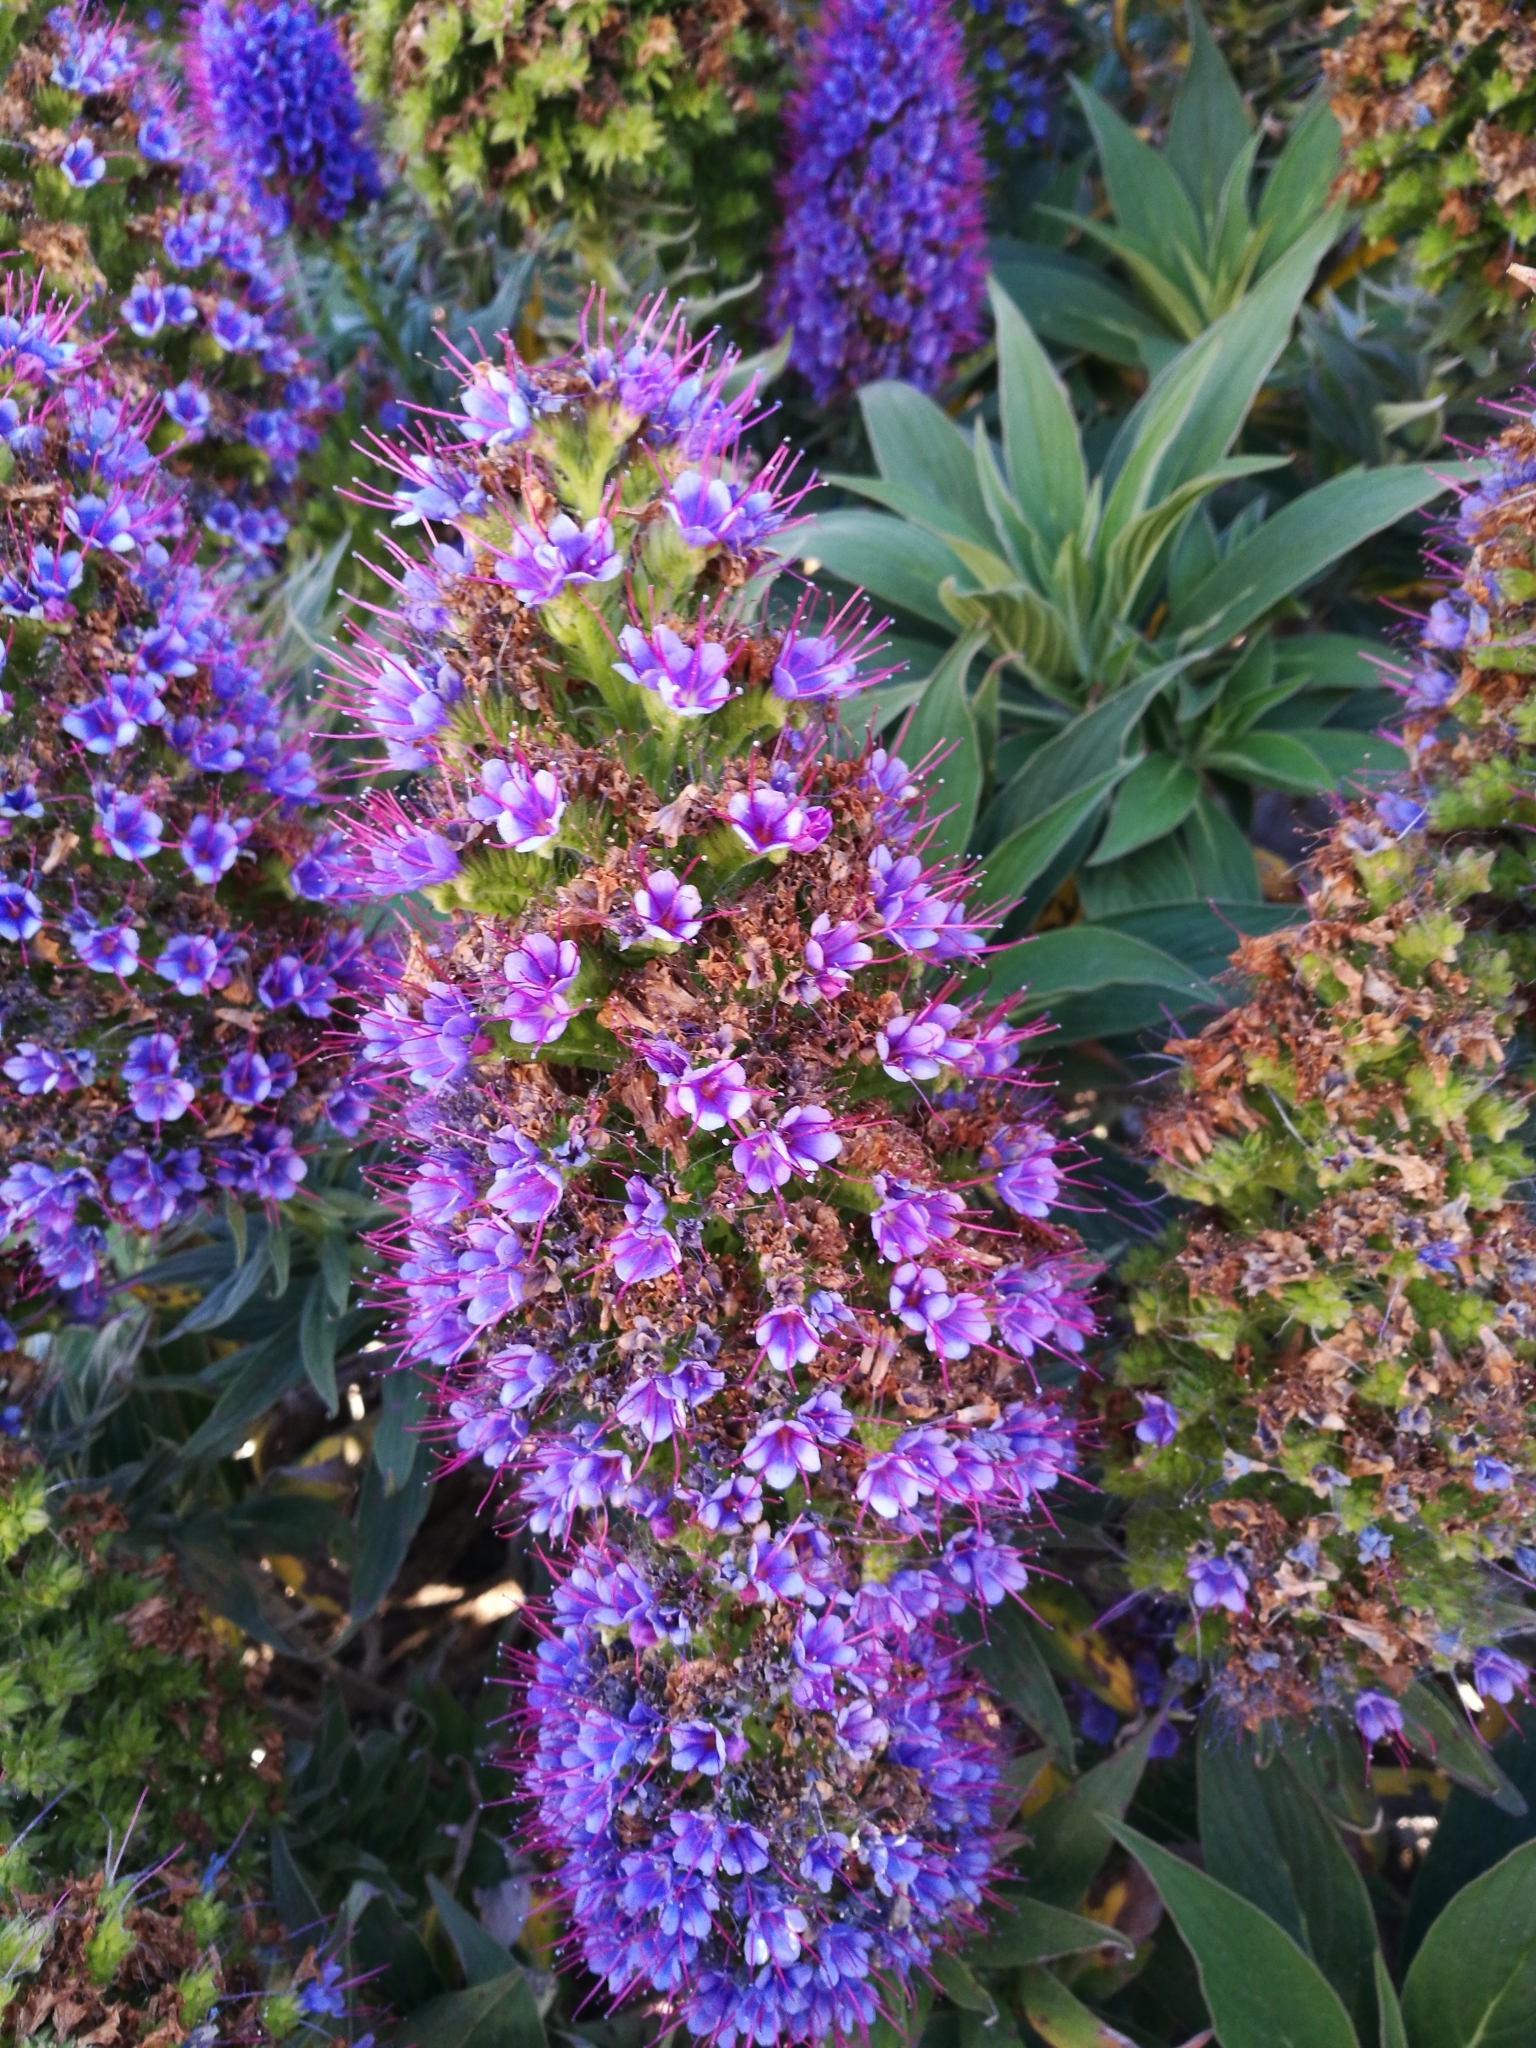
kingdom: Plantae
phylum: Tracheophyta
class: Magnoliopsida
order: Boraginales
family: Boraginaceae
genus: Echium
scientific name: Echium candicans
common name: Pride of madeira
